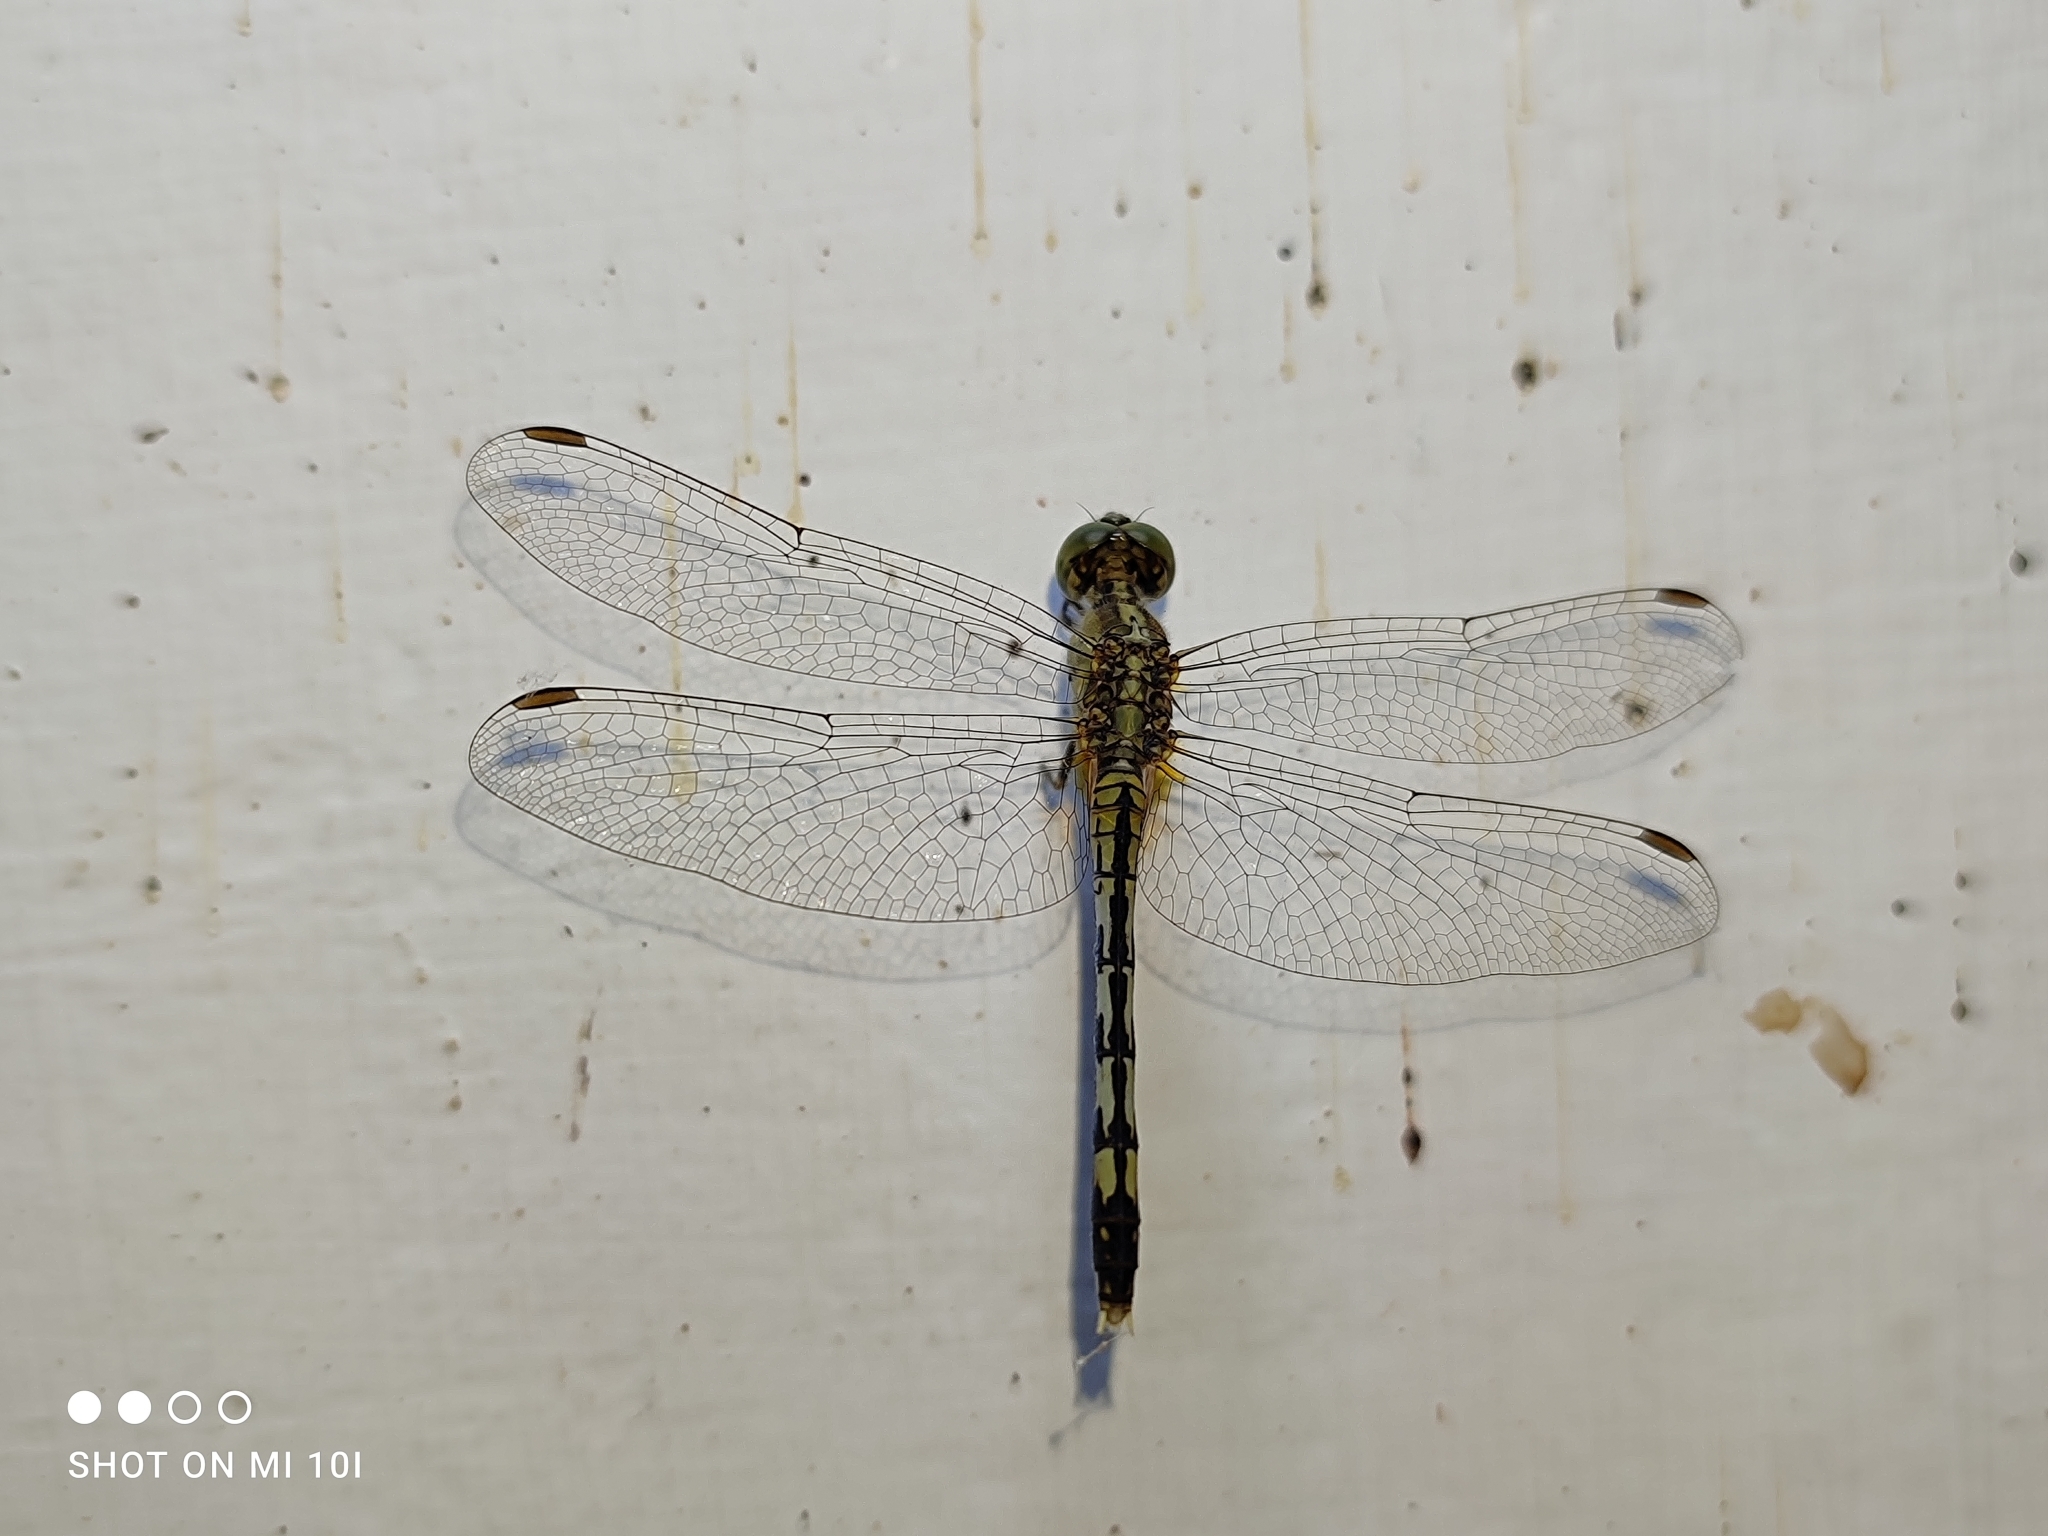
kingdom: Animalia
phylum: Arthropoda
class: Insecta
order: Odonata
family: Libellulidae
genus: Diplacodes
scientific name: Diplacodes trivialis
